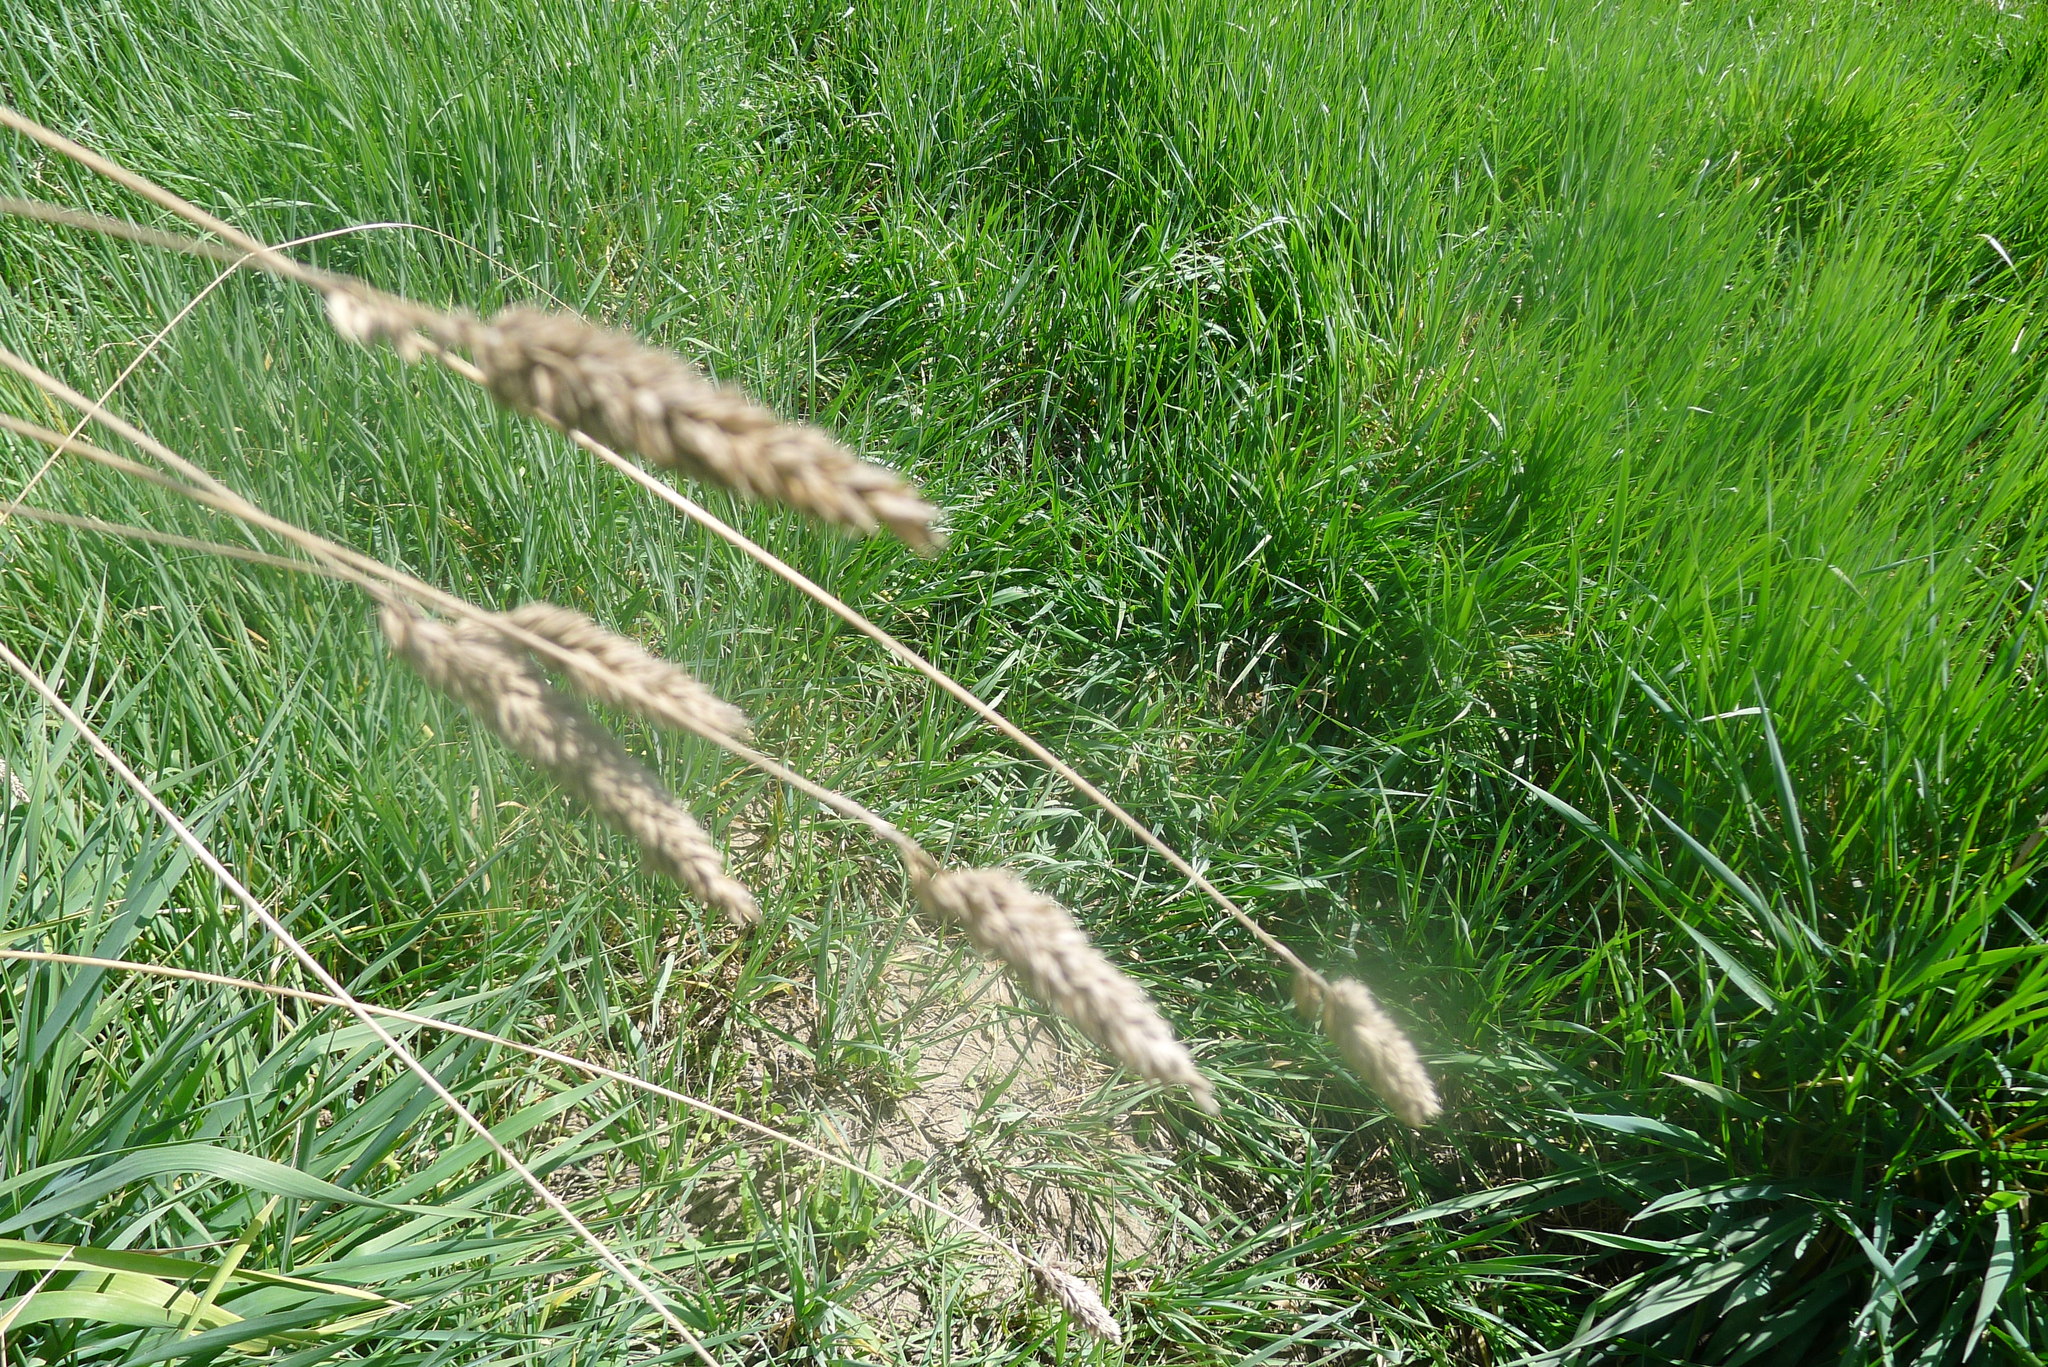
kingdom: Plantae
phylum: Tracheophyta
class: Liliopsida
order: Poales
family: Poaceae
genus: Phalaris
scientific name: Phalaris aquatica
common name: Bulbous canary-grass
